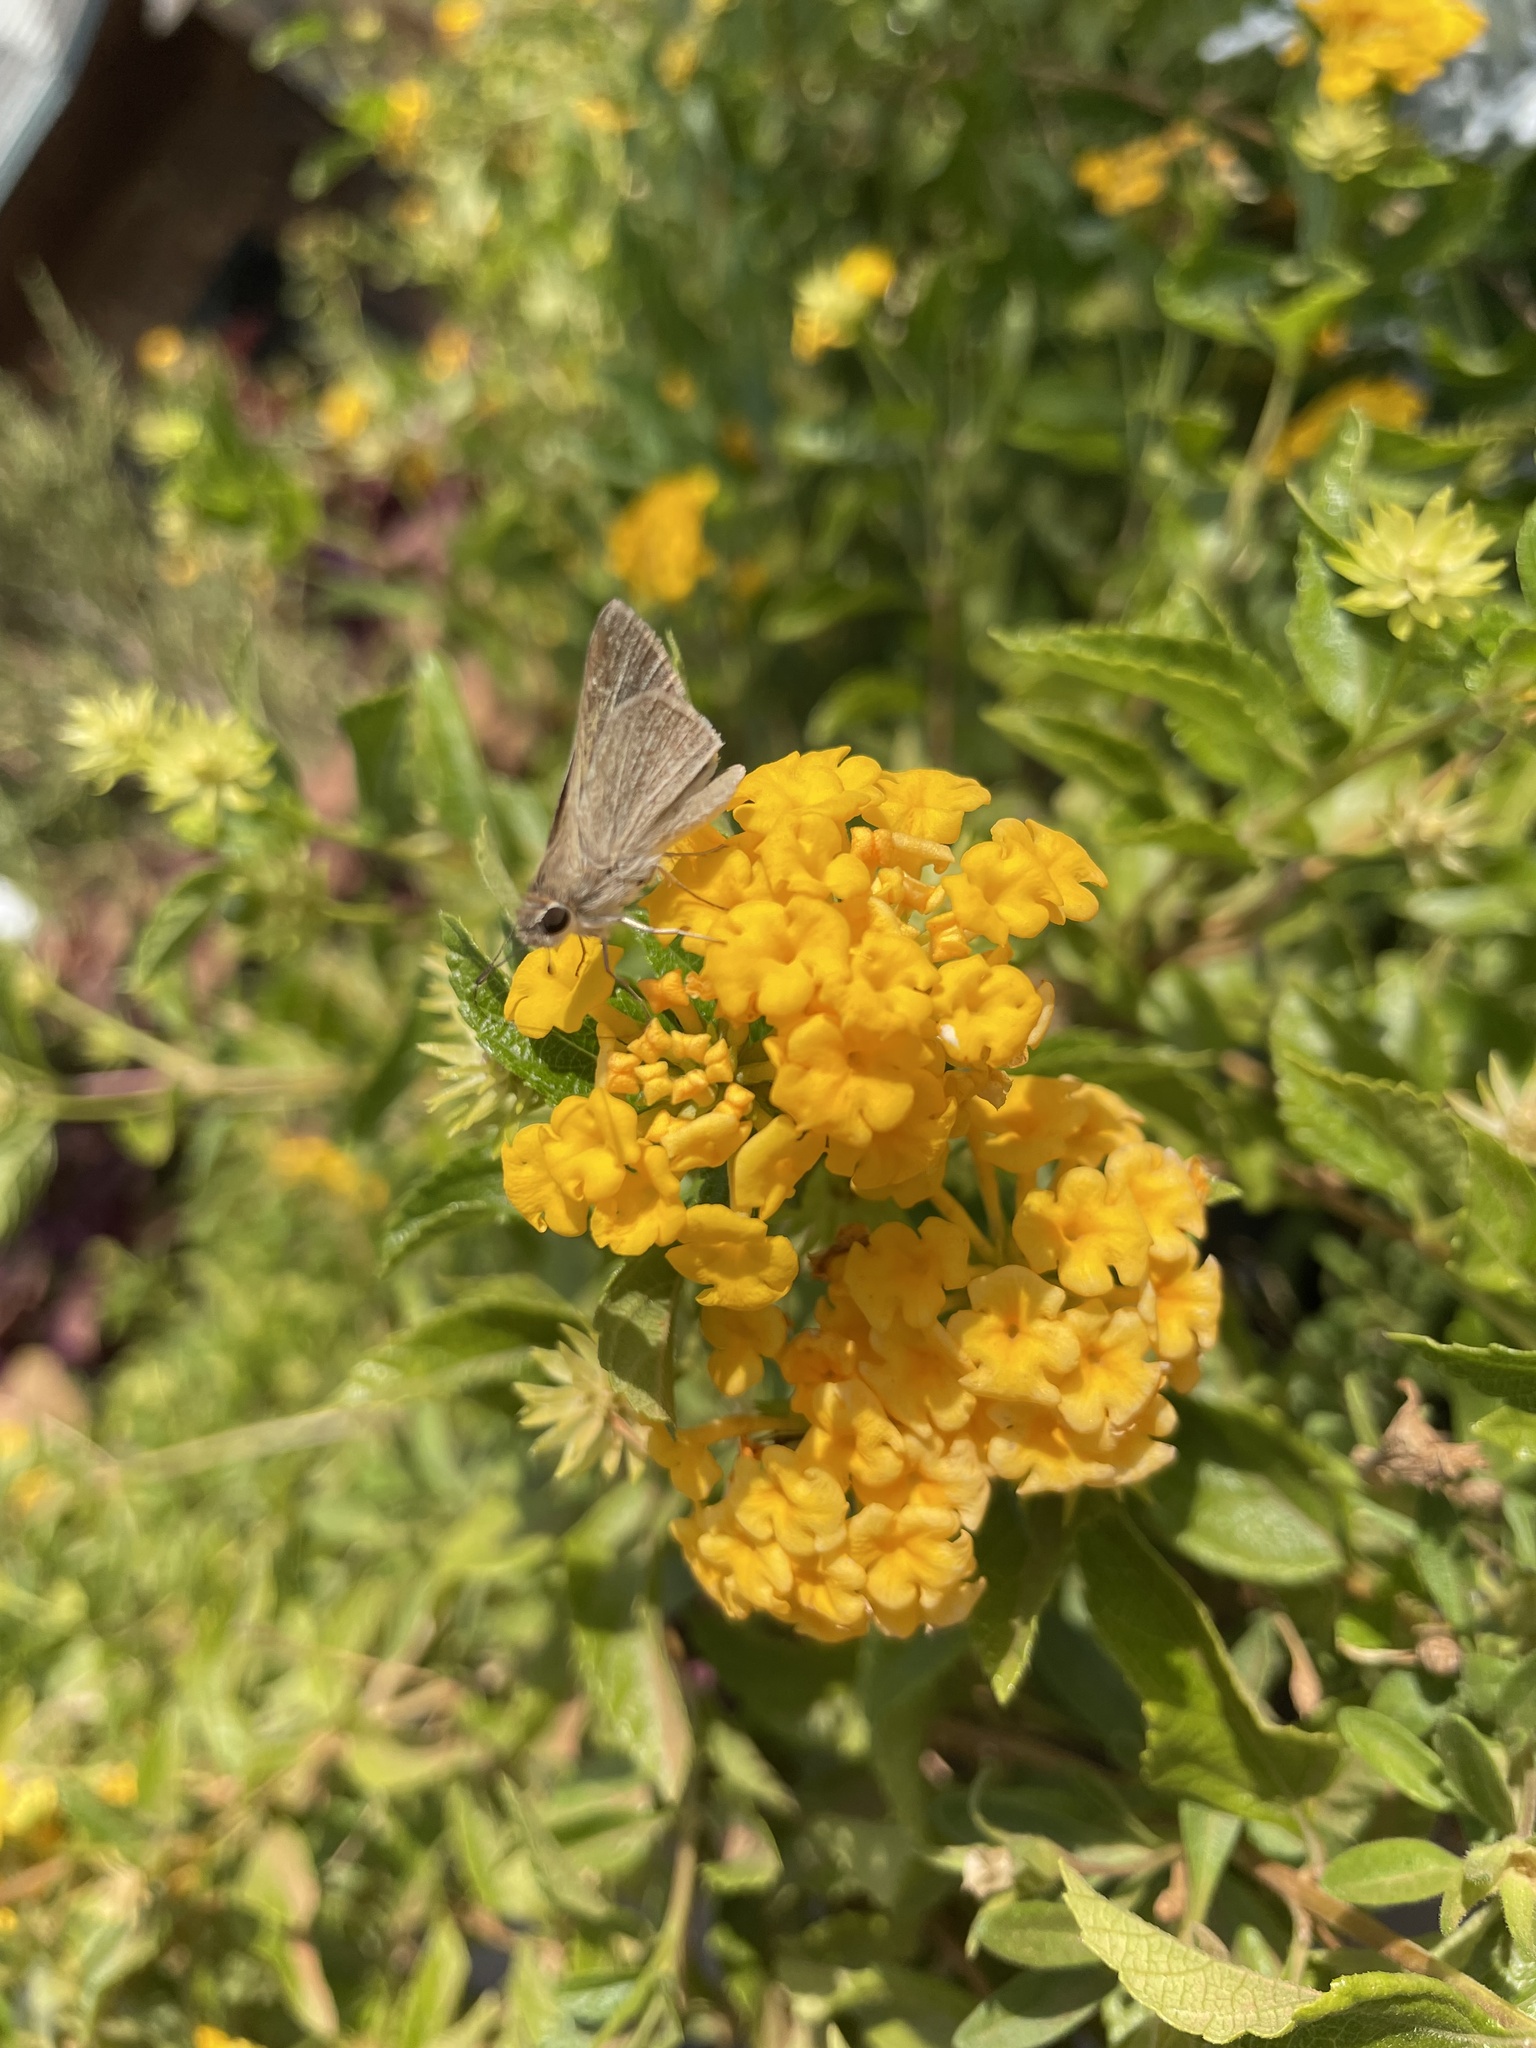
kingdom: Animalia
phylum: Arthropoda
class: Insecta
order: Lepidoptera
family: Hesperiidae
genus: Lerodea
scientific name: Lerodea eufala
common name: Eufala skipper
